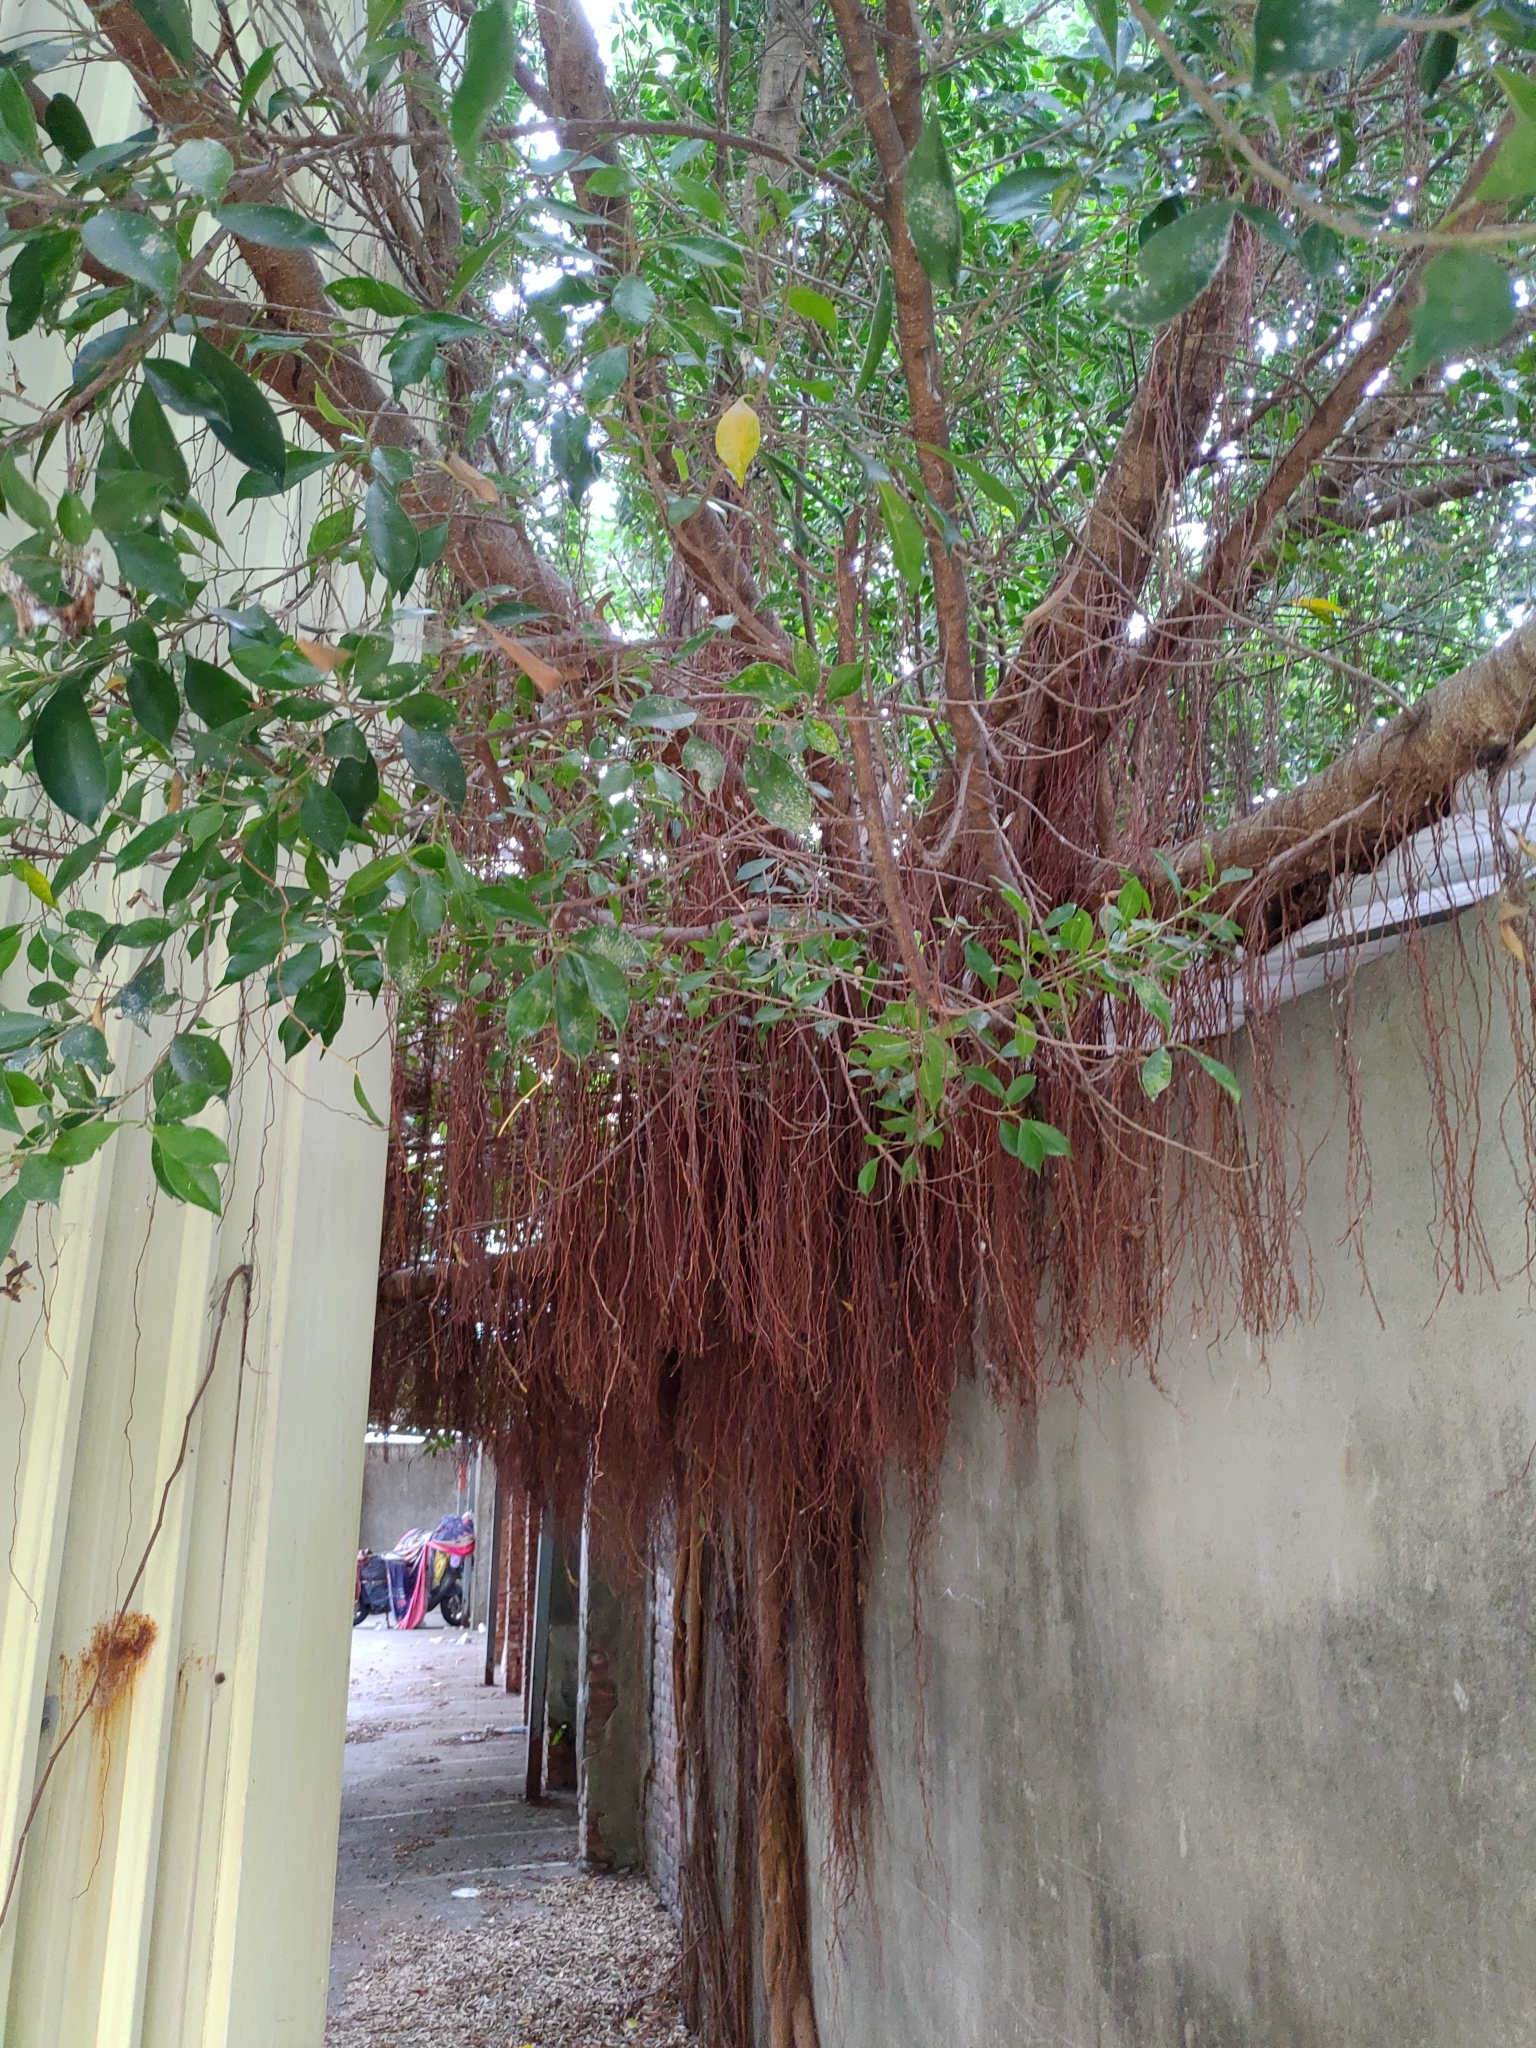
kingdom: Plantae
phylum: Tracheophyta
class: Magnoliopsida
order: Rosales
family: Moraceae
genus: Ficus
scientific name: Ficus microcarpa
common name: Chinese banyan
